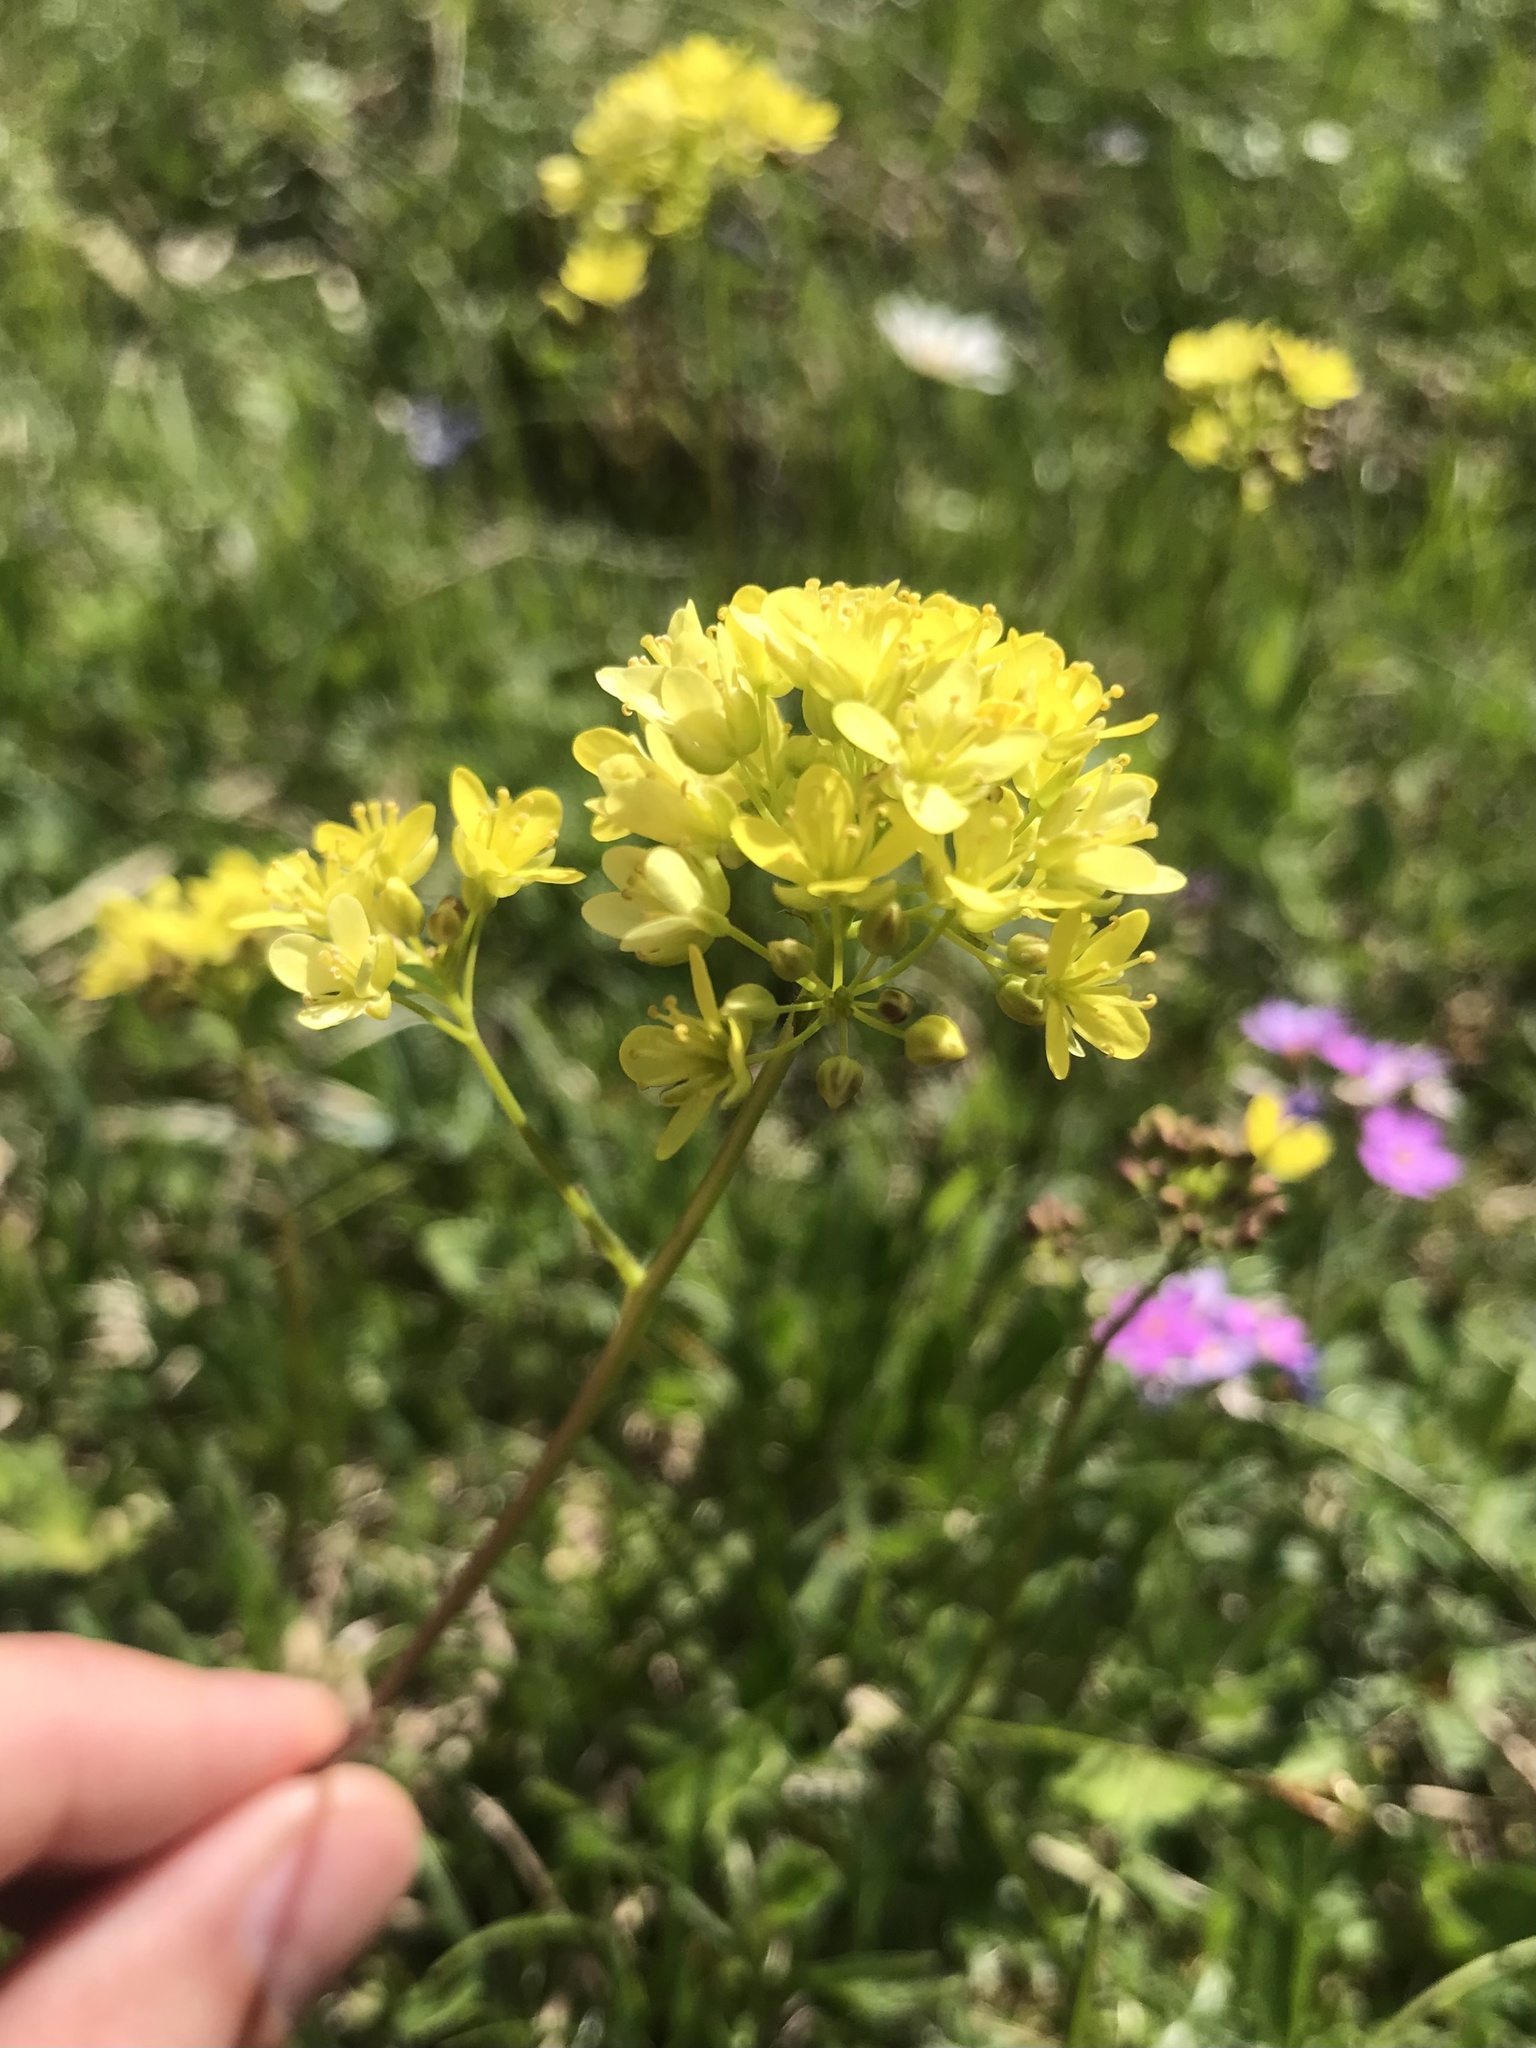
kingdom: Plantae
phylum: Tracheophyta
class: Magnoliopsida
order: Brassicales
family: Brassicaceae
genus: Biscutella
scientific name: Biscutella laevigata
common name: Buckler mustard
